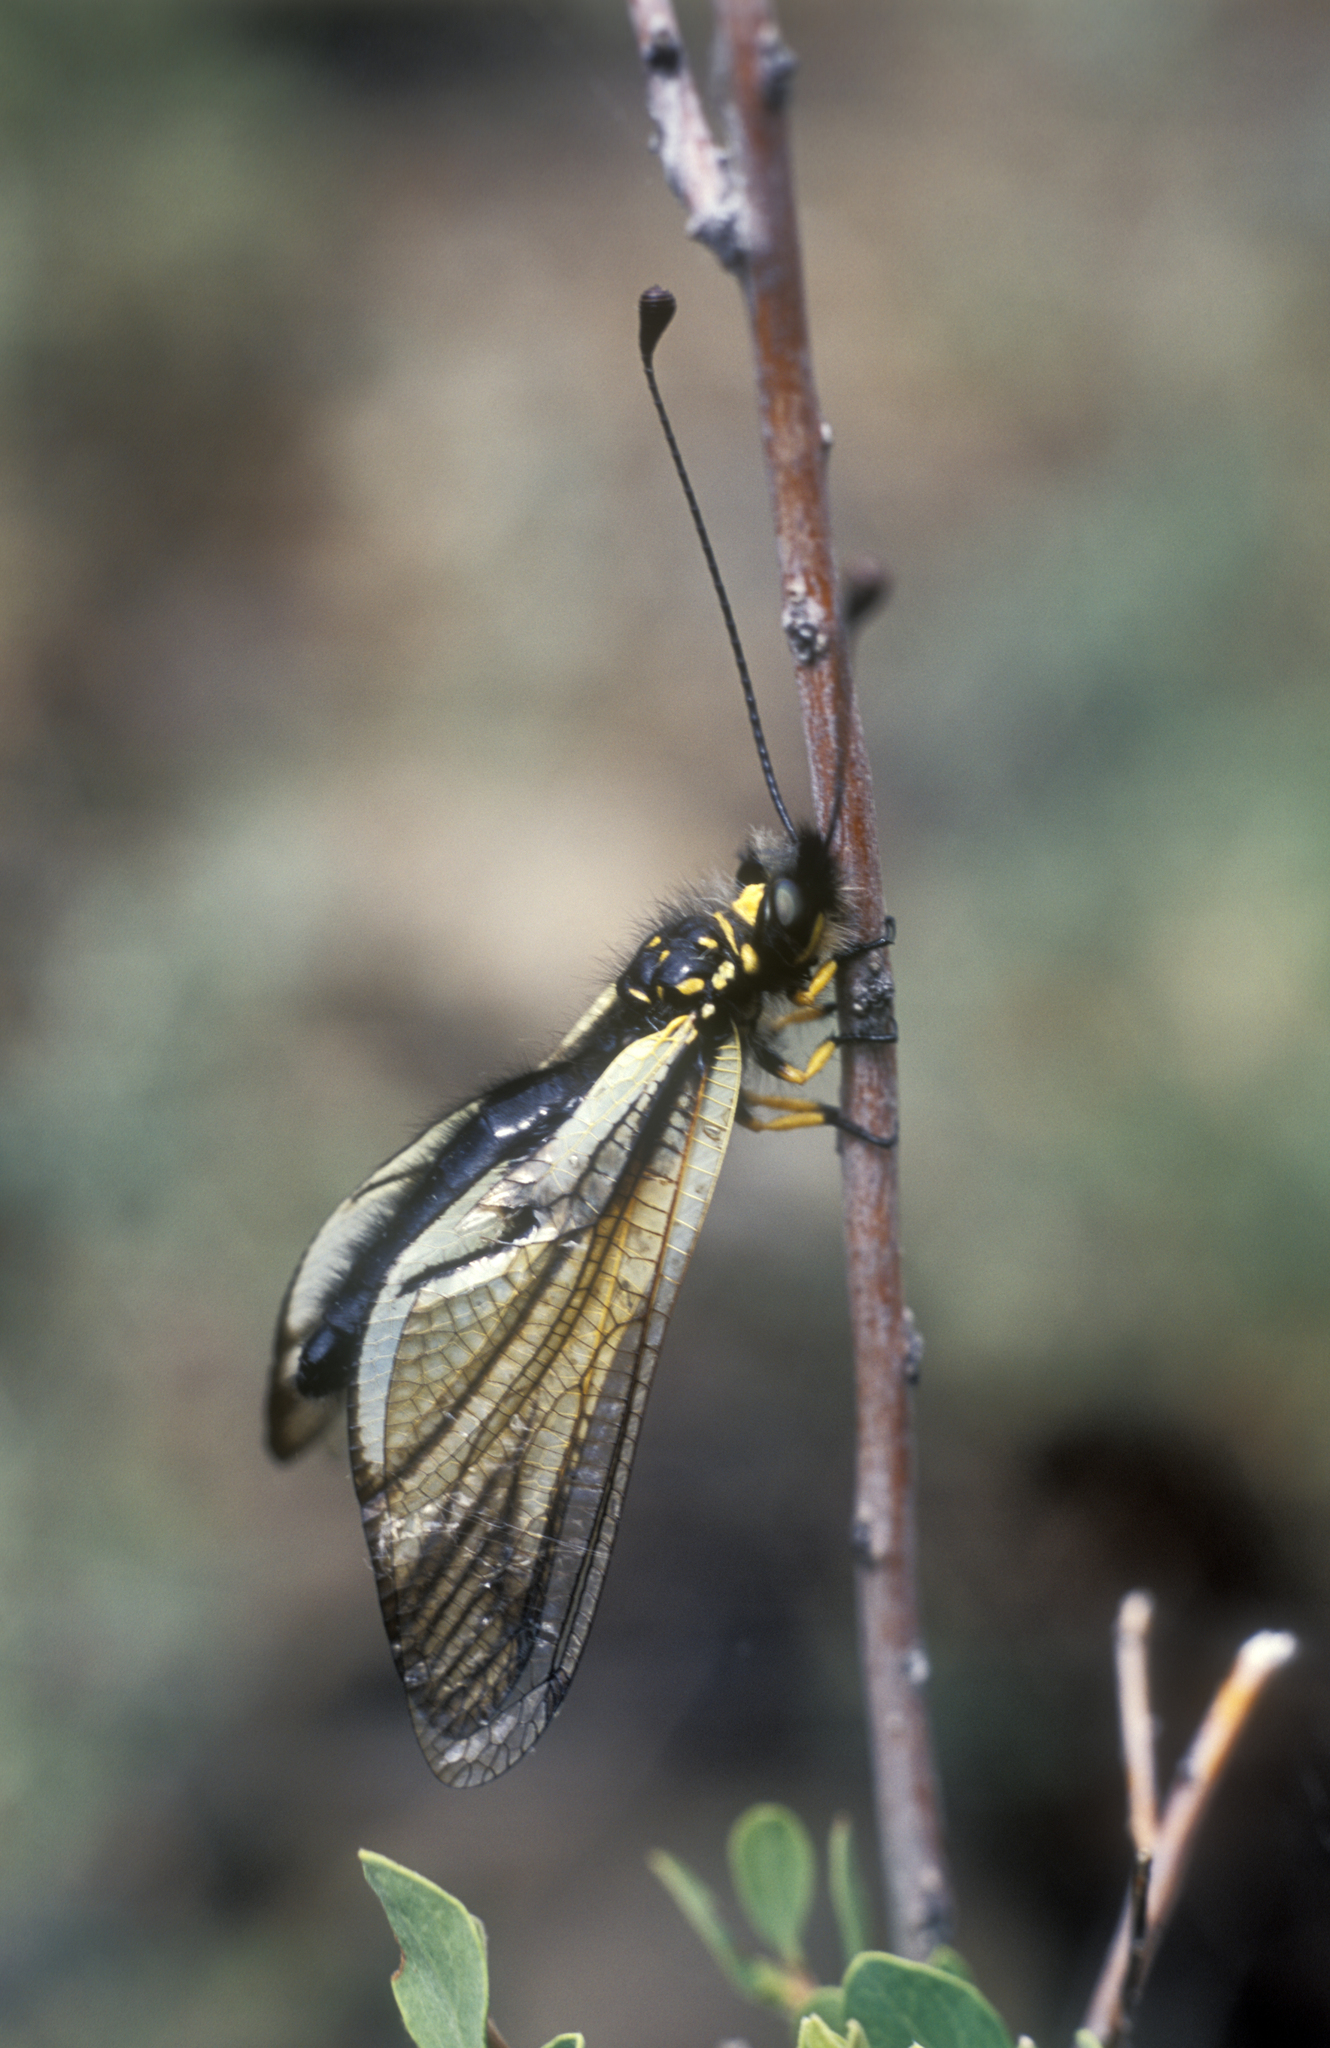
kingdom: Animalia
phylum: Arthropoda
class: Insecta
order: Neuroptera
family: Ascalaphidae
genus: Libelloides
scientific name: Libelloides sibiricus
